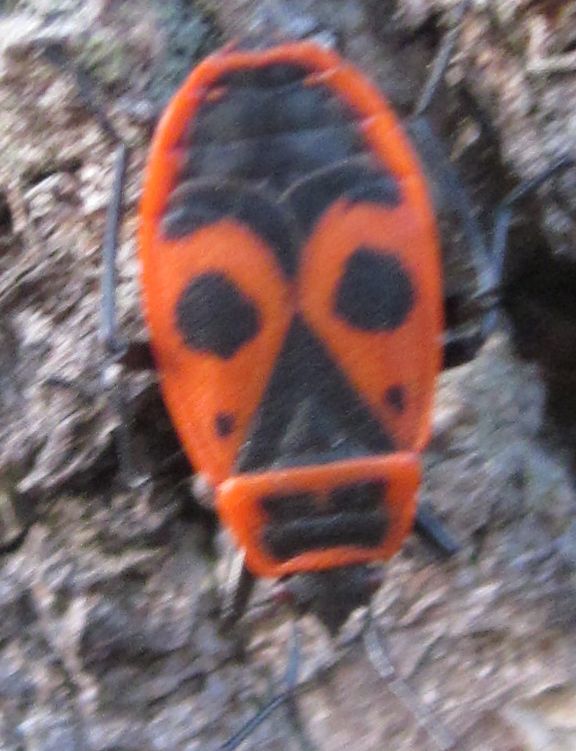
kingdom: Animalia
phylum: Arthropoda
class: Insecta
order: Hemiptera
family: Pyrrhocoridae
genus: Pyrrhocoris
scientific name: Pyrrhocoris apterus
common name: Firebug
